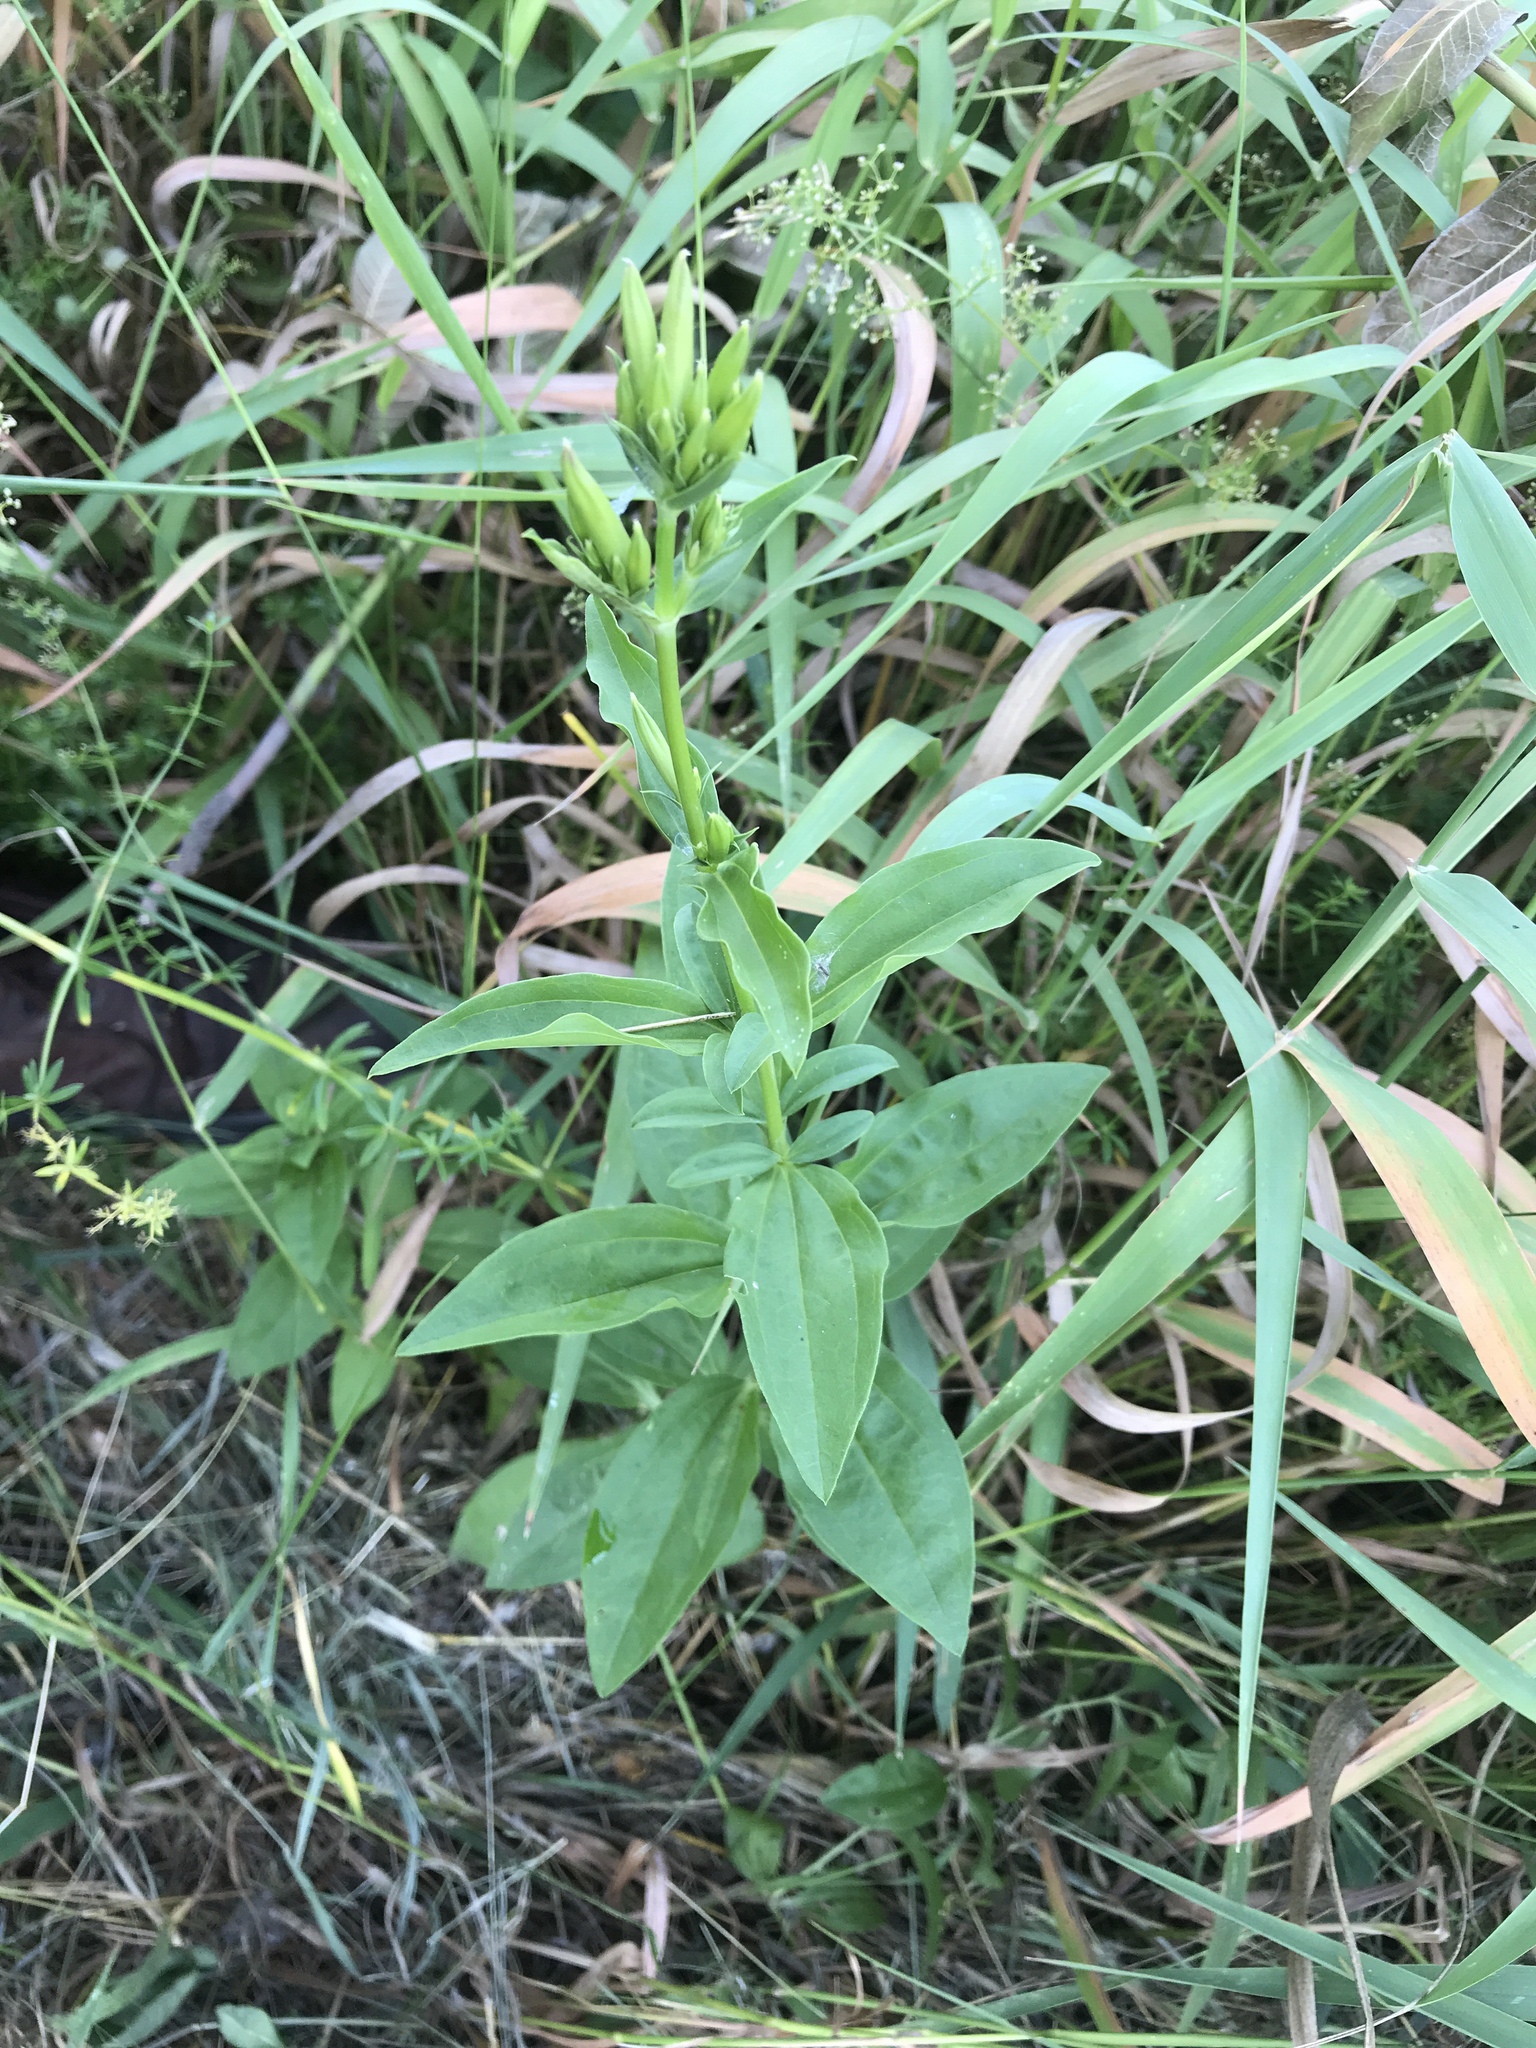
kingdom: Plantae
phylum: Tracheophyta
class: Magnoliopsida
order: Caryophyllales
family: Caryophyllaceae
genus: Saponaria
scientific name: Saponaria officinalis
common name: Soapwort
